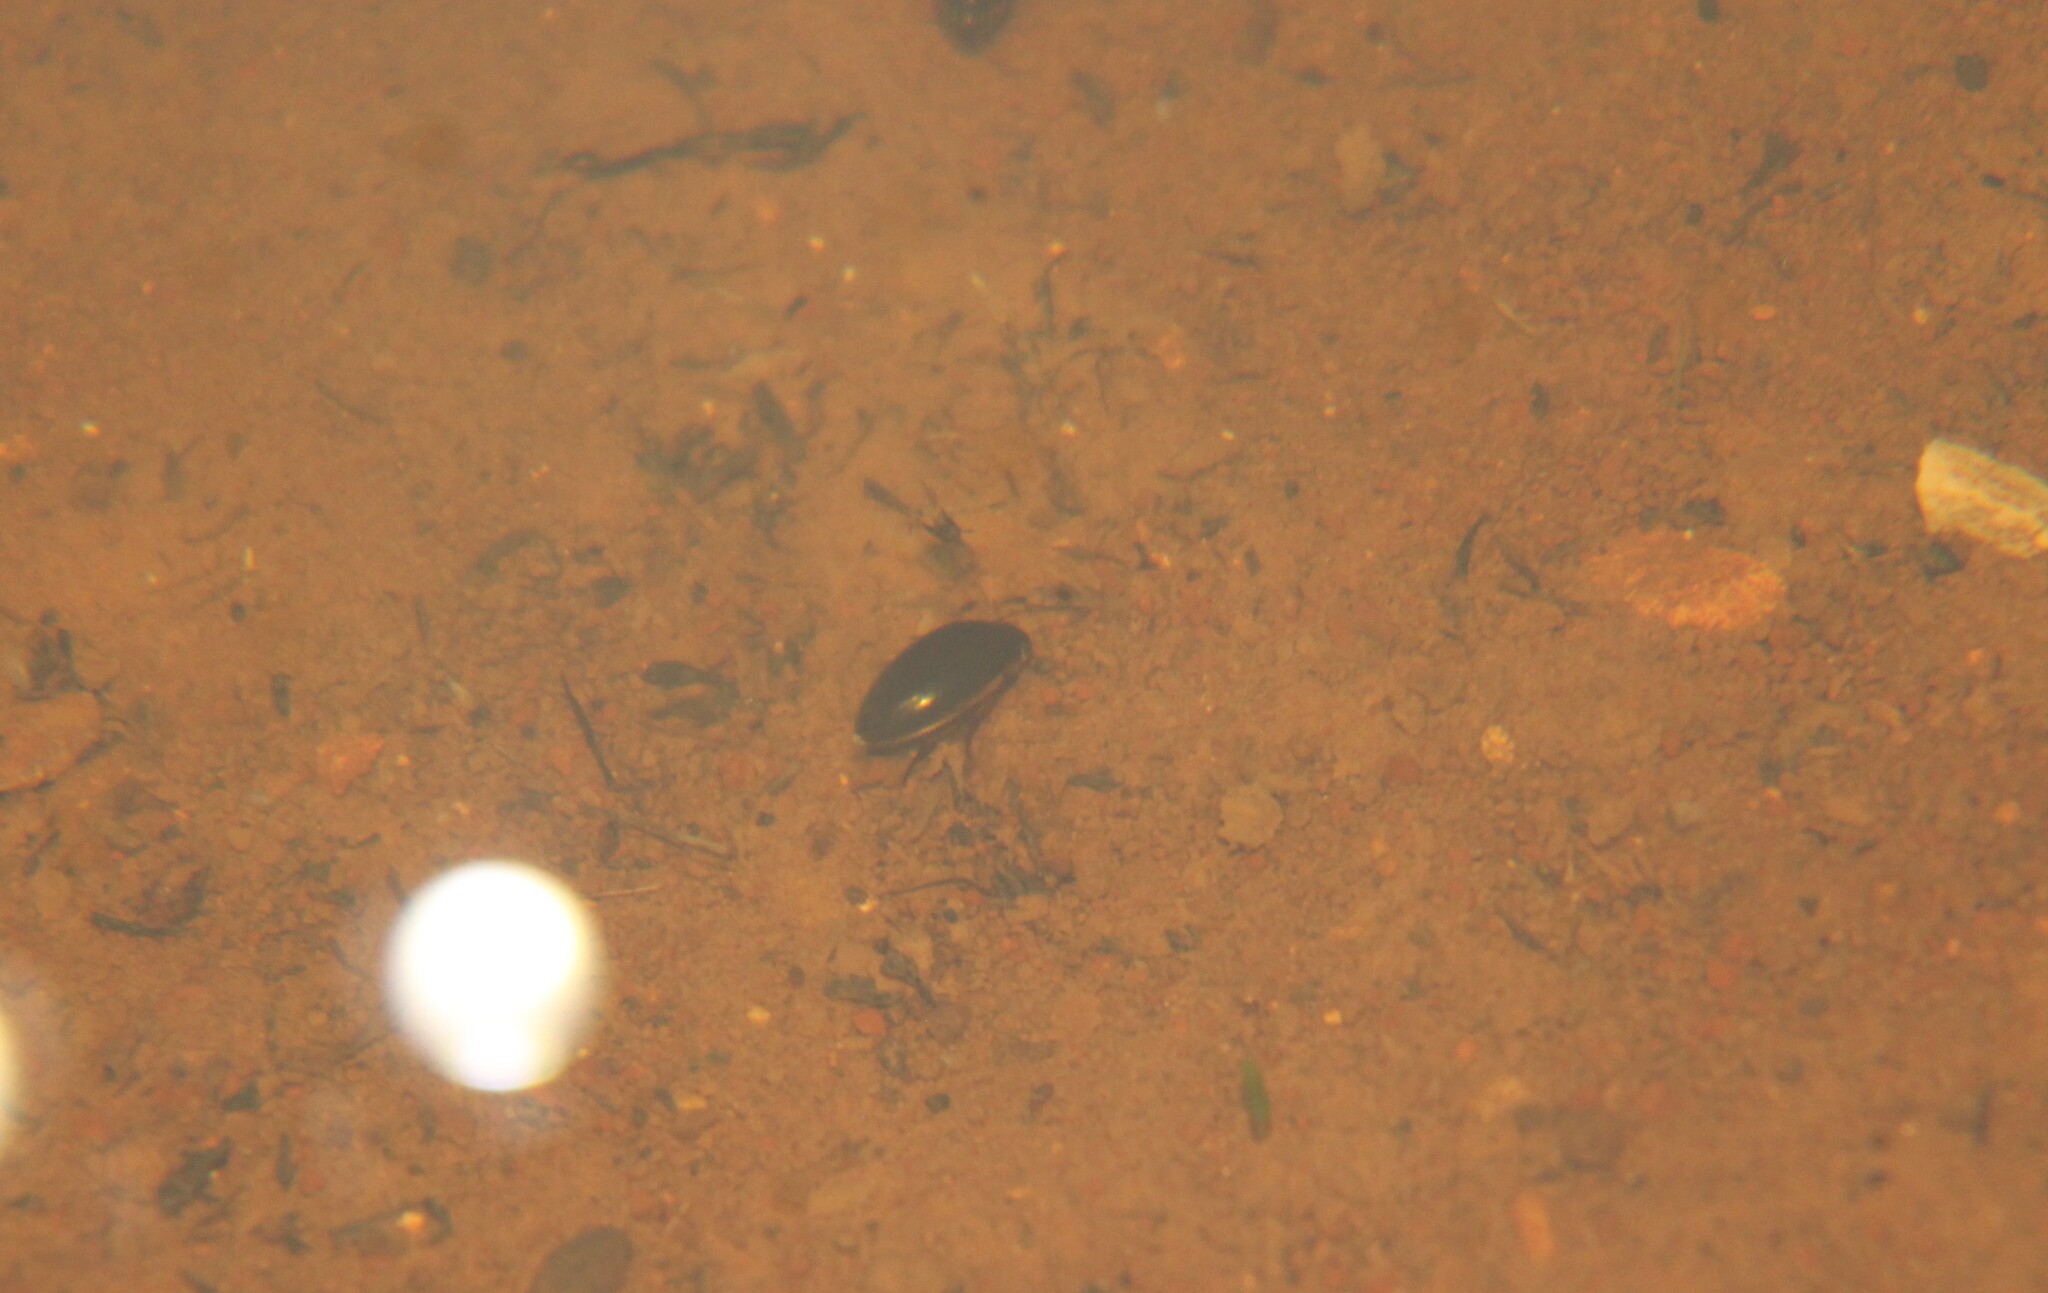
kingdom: Animalia
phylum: Arthropoda
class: Insecta
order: Coleoptera
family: Hydrophilidae
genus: Tropisternus
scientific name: Tropisternus lateralis
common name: Lateral-banded water scavenger beetle
